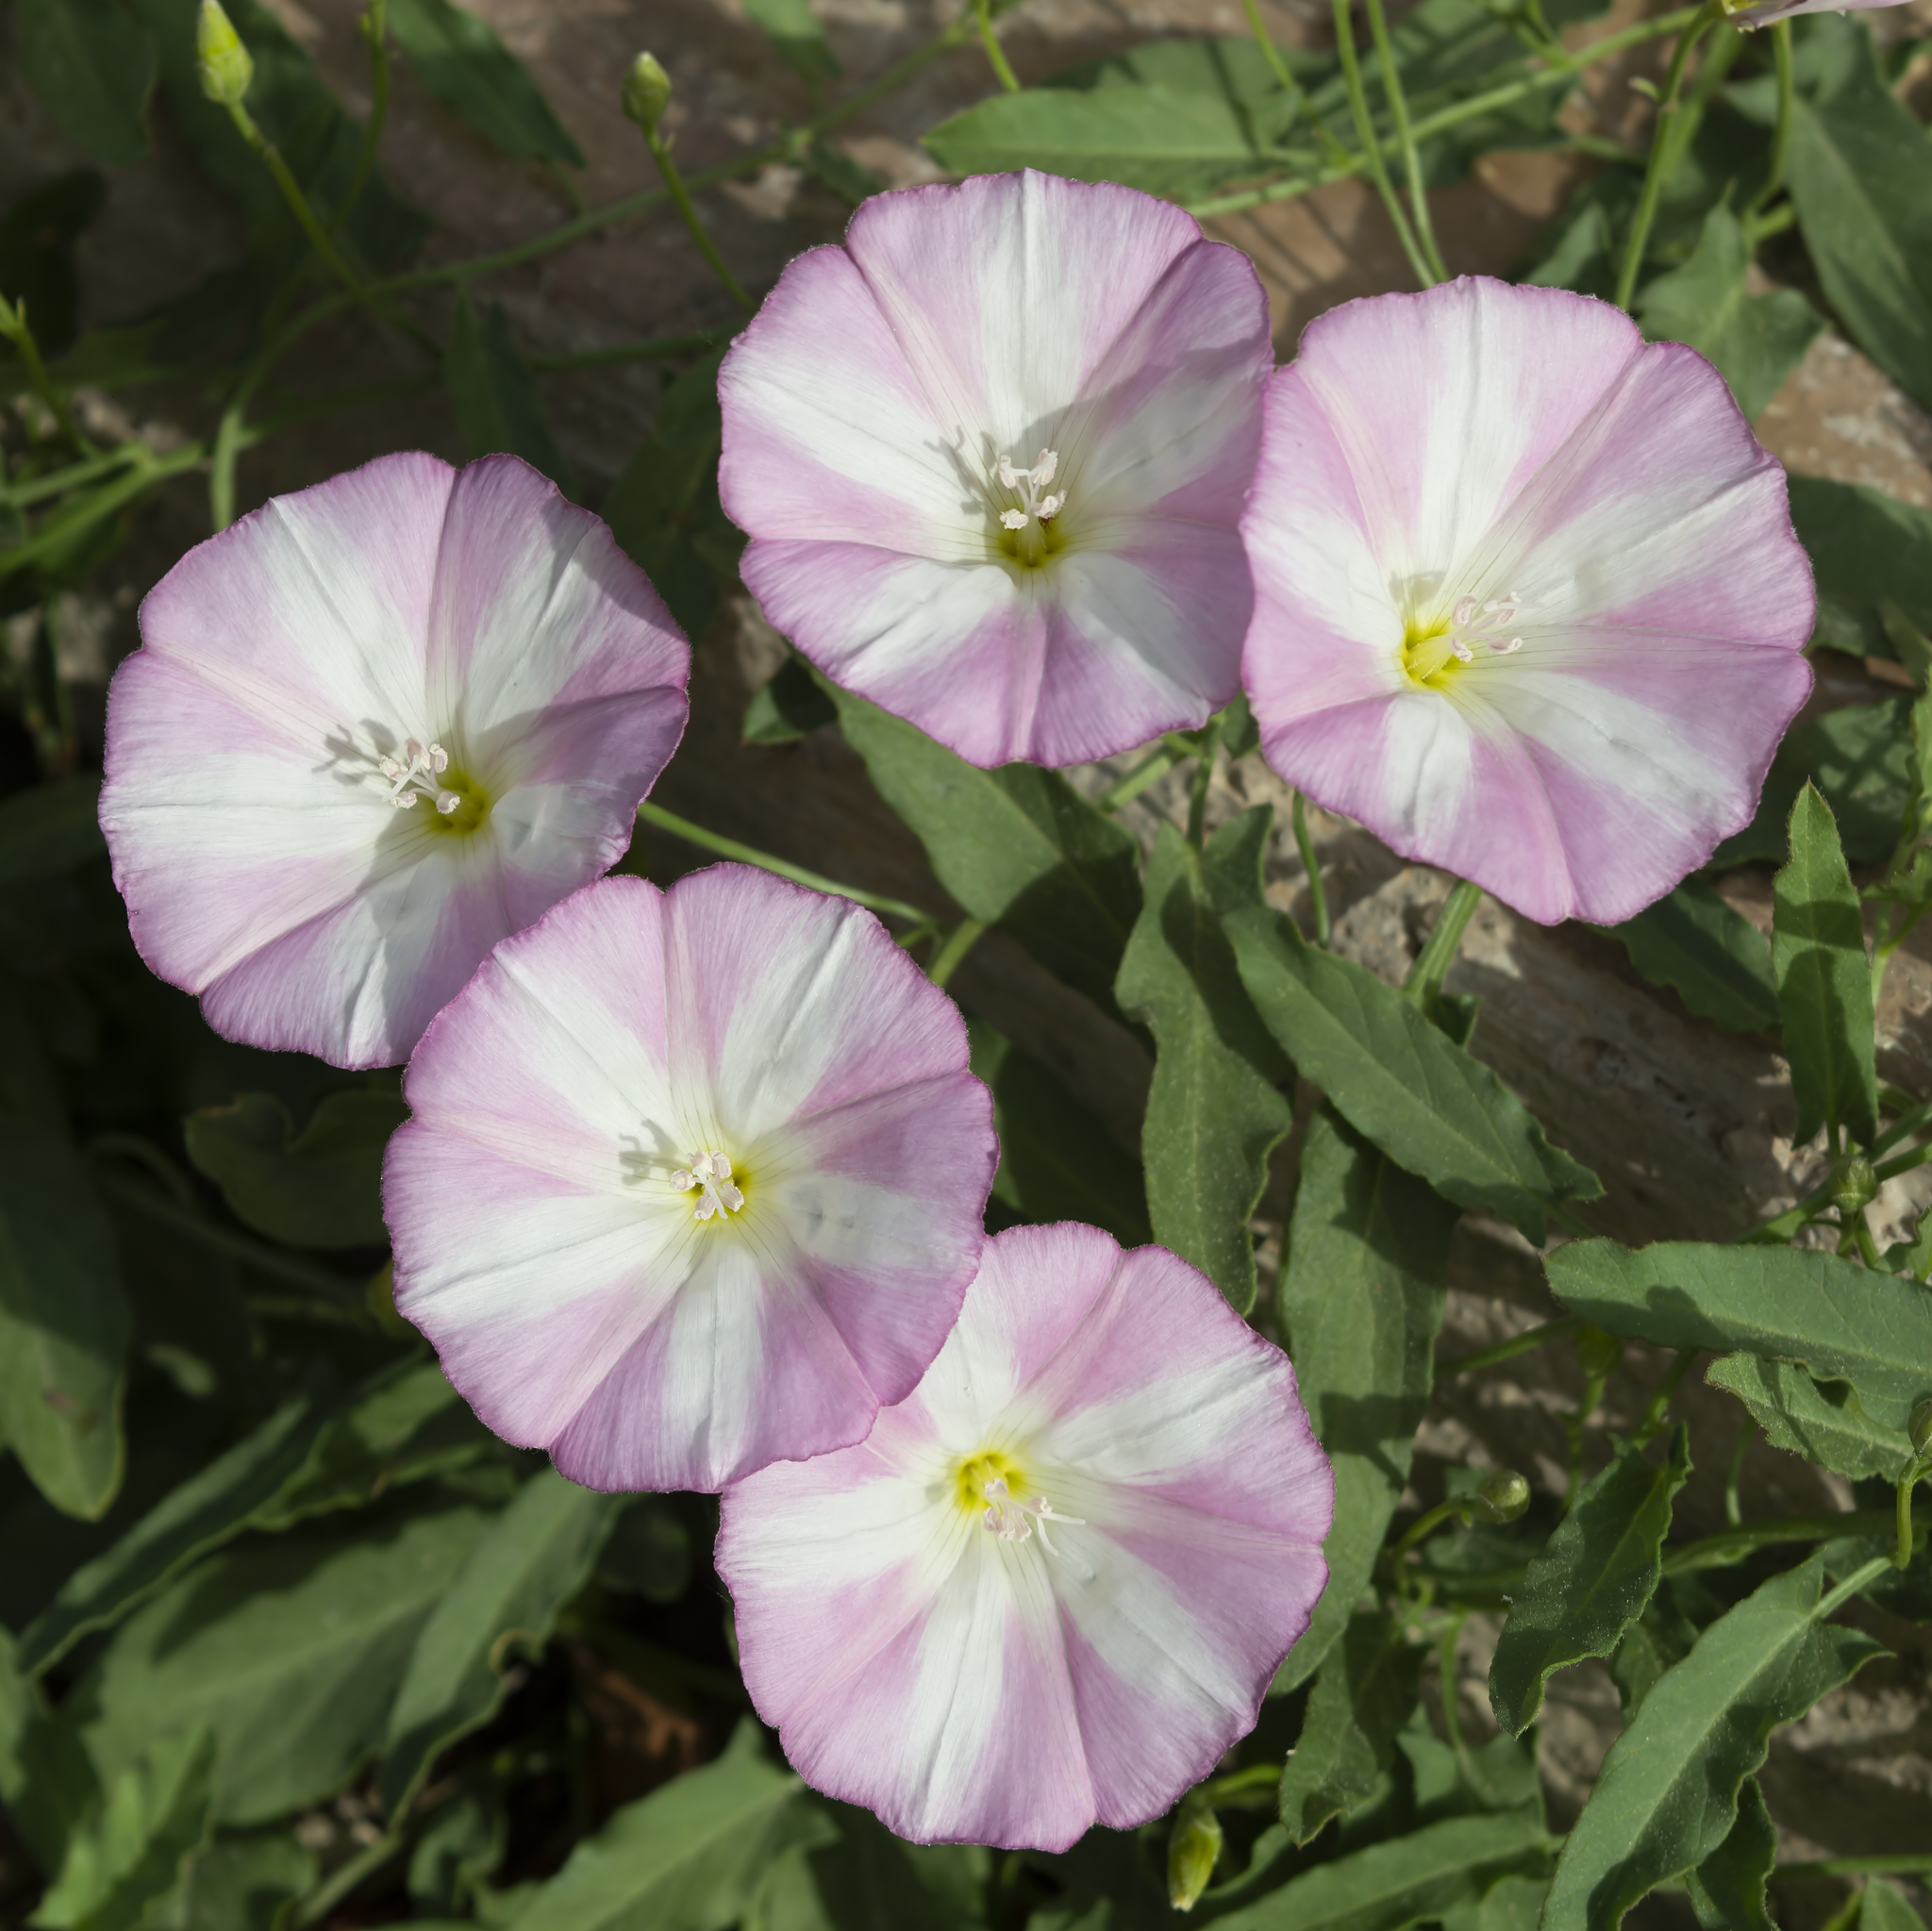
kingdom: Plantae
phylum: Tracheophyta
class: Magnoliopsida
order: Solanales
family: Convolvulaceae
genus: Convolvulus
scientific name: Convolvulus arvensis
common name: Field bindweed
